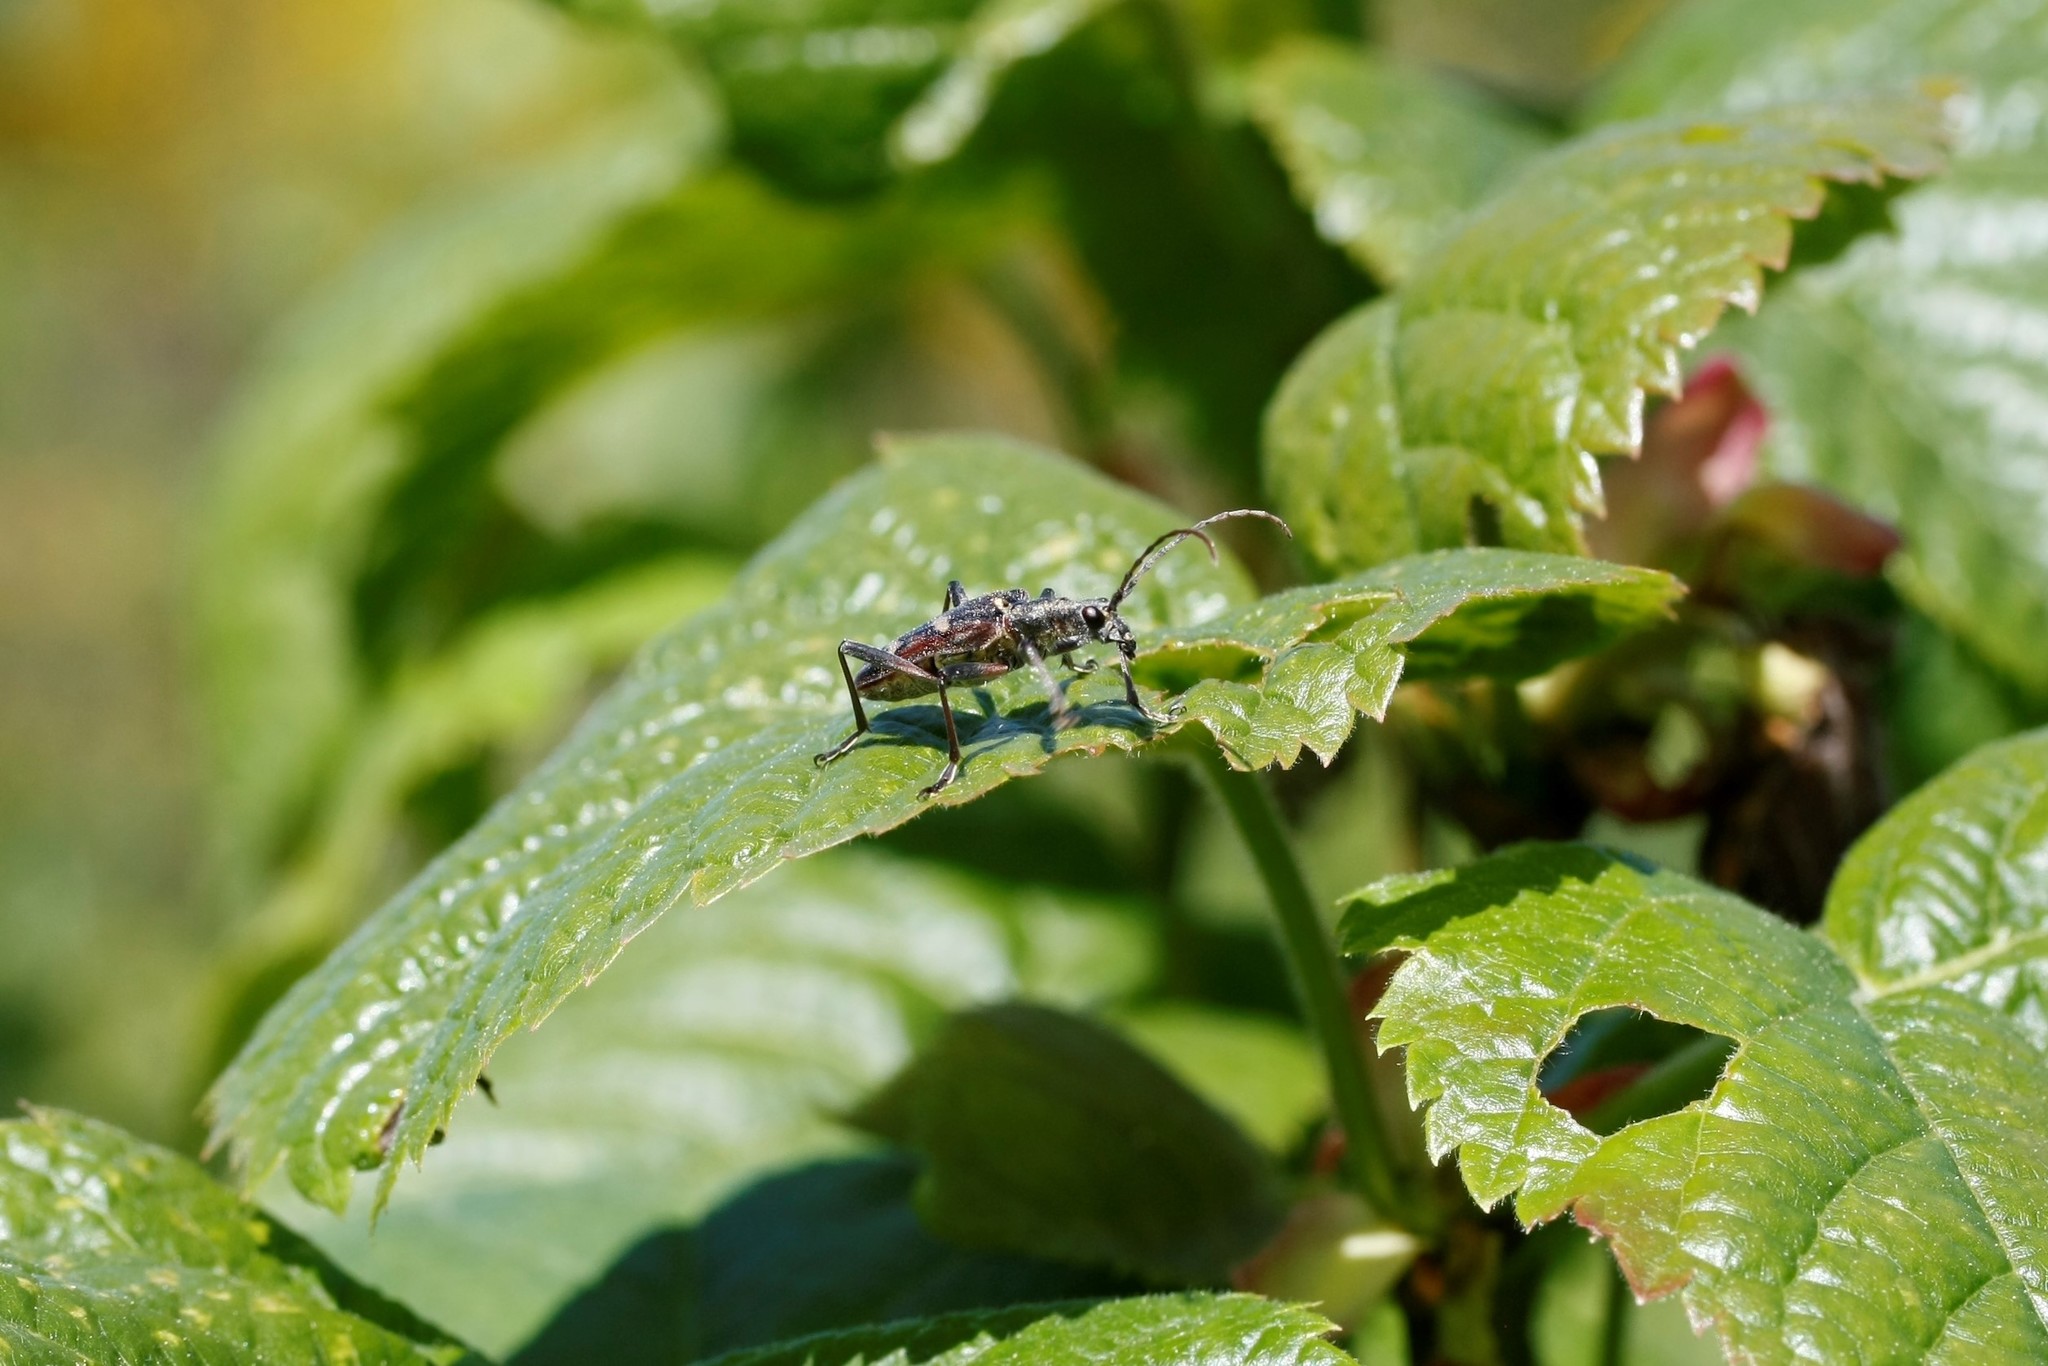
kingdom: Animalia
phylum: Arthropoda
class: Insecta
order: Coleoptera
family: Cerambycidae
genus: Rhagium
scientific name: Rhagium bifasciatum
